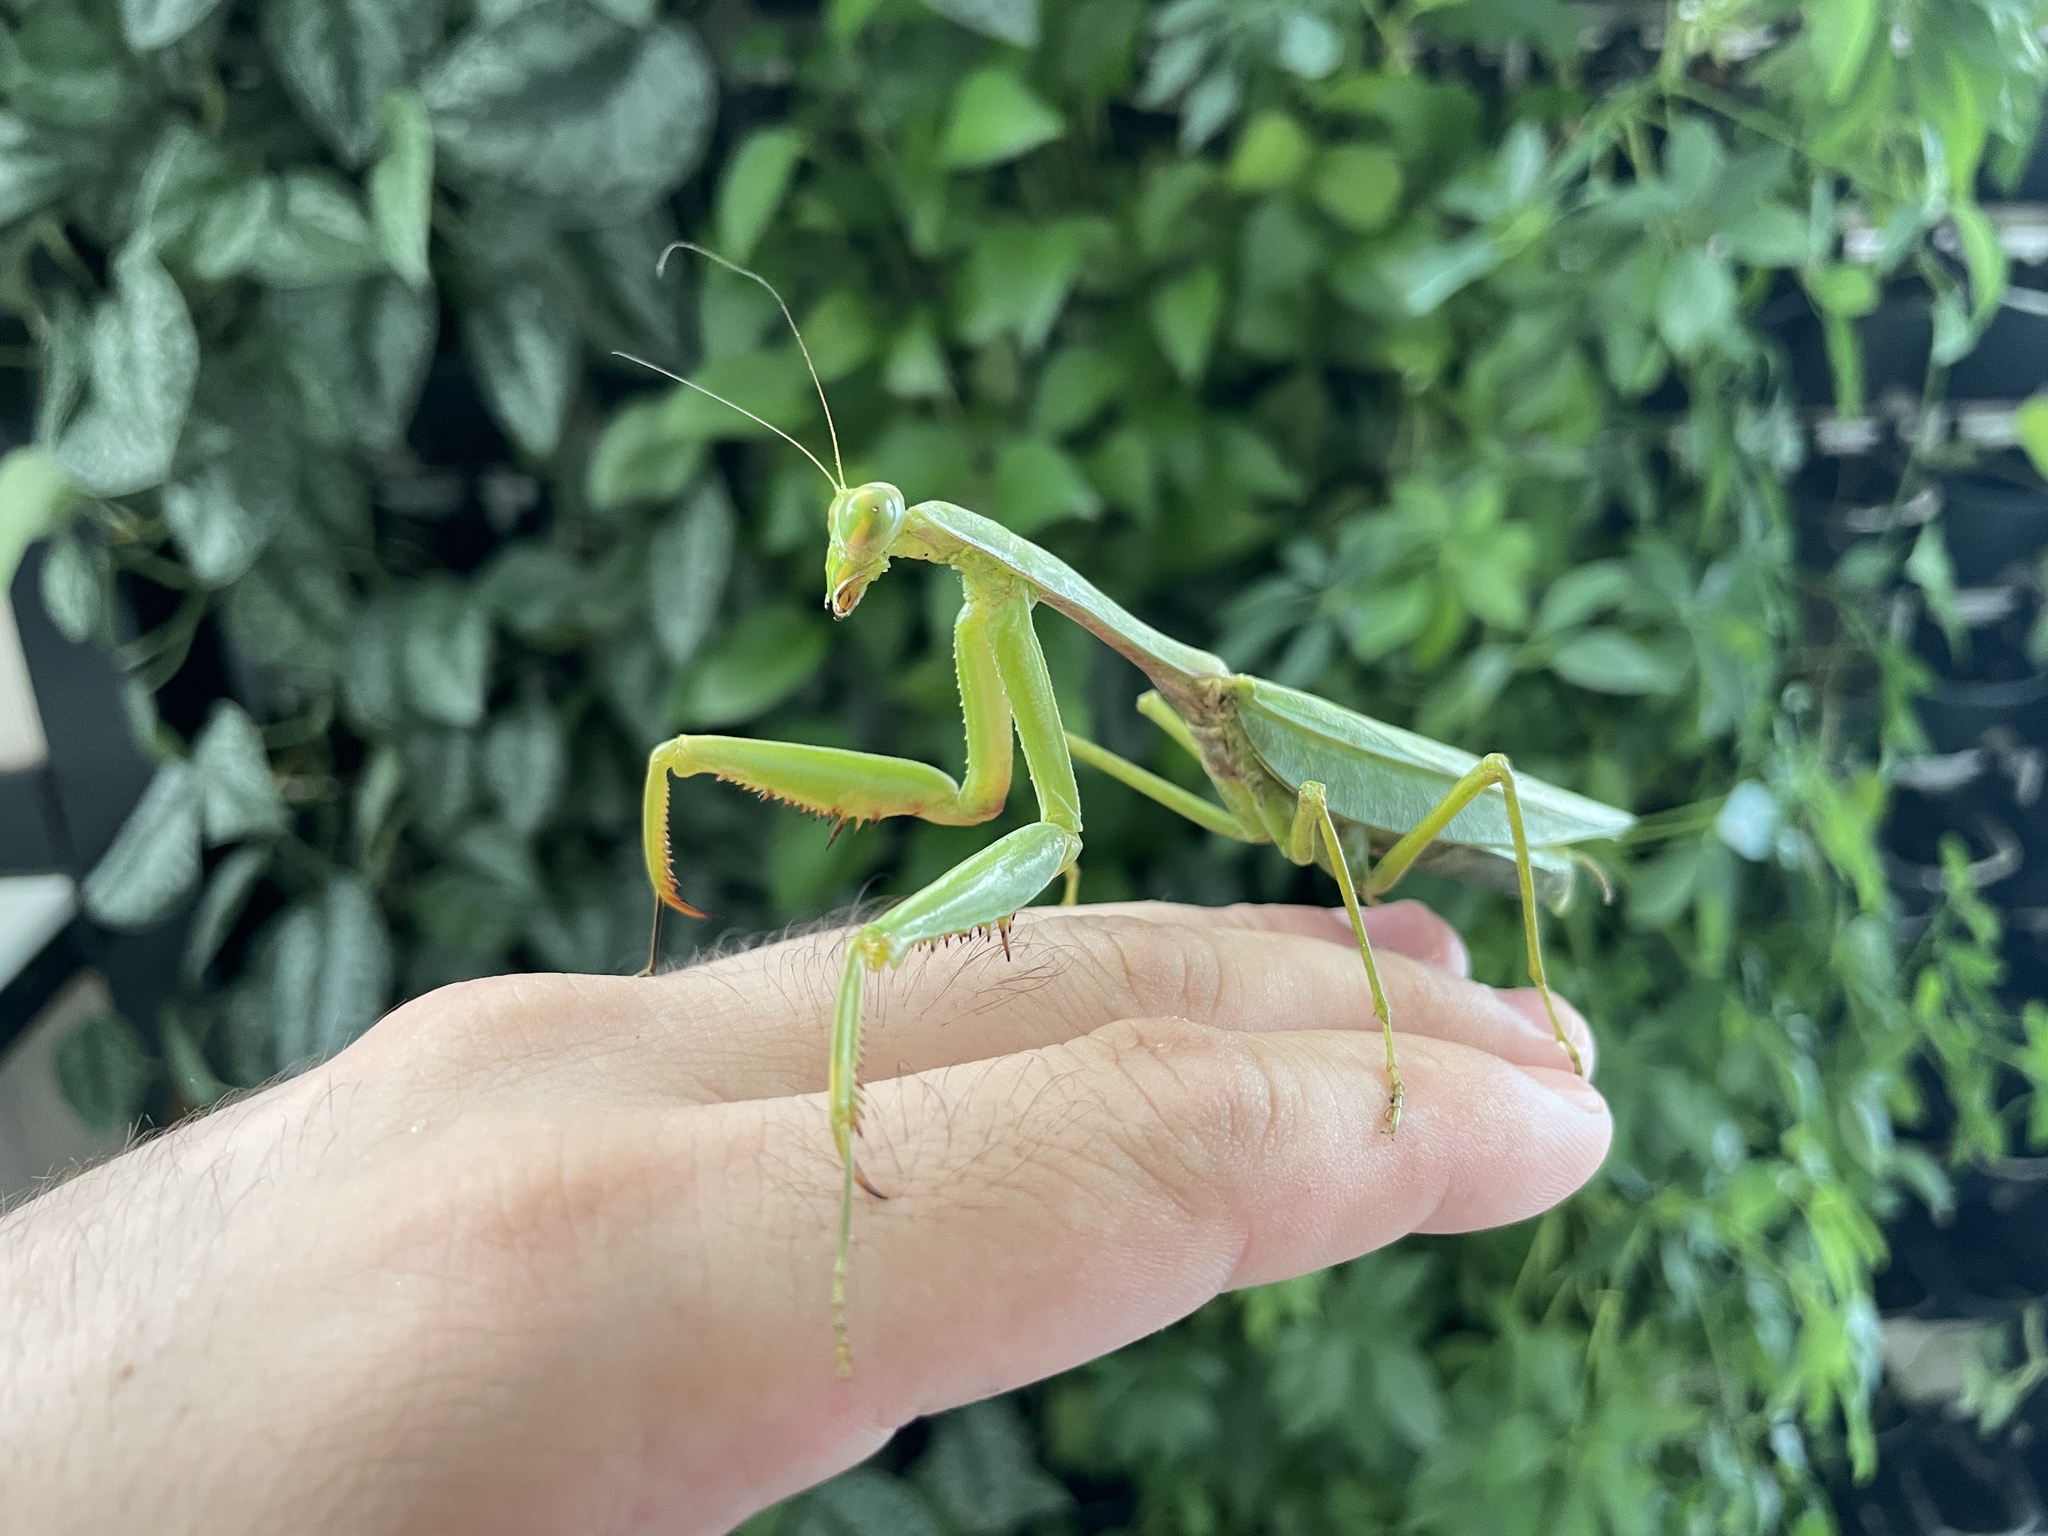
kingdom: Animalia
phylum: Arthropoda
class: Insecta
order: Mantodea
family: Mantidae
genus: Titanodula
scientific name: Titanodula formosana
